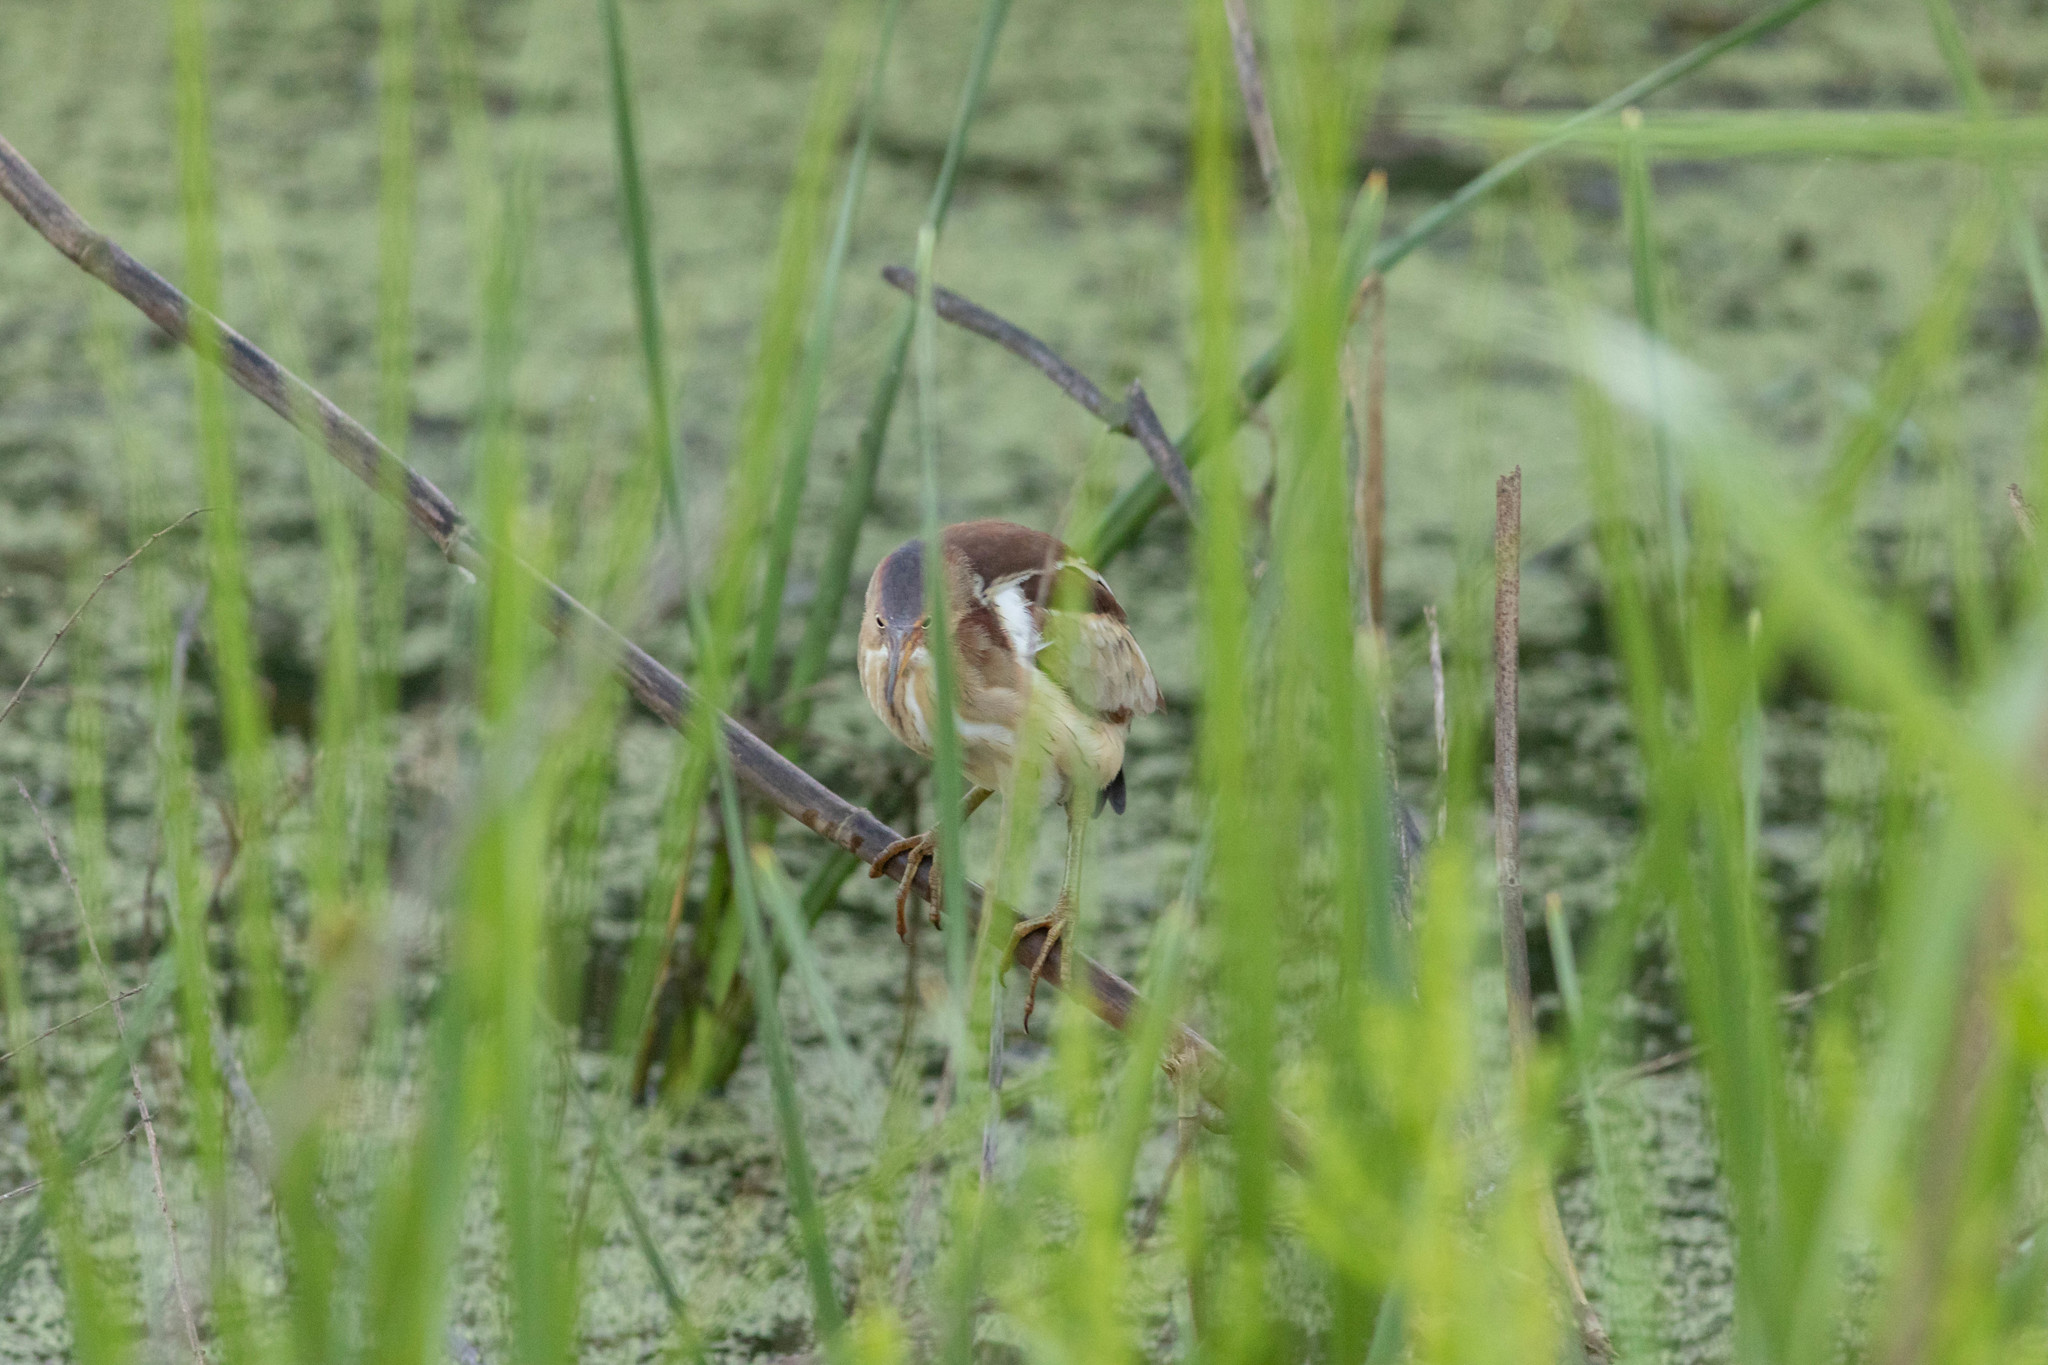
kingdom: Animalia
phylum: Chordata
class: Aves
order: Pelecaniformes
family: Ardeidae
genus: Ixobrychus
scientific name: Ixobrychus exilis
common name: Least bittern
